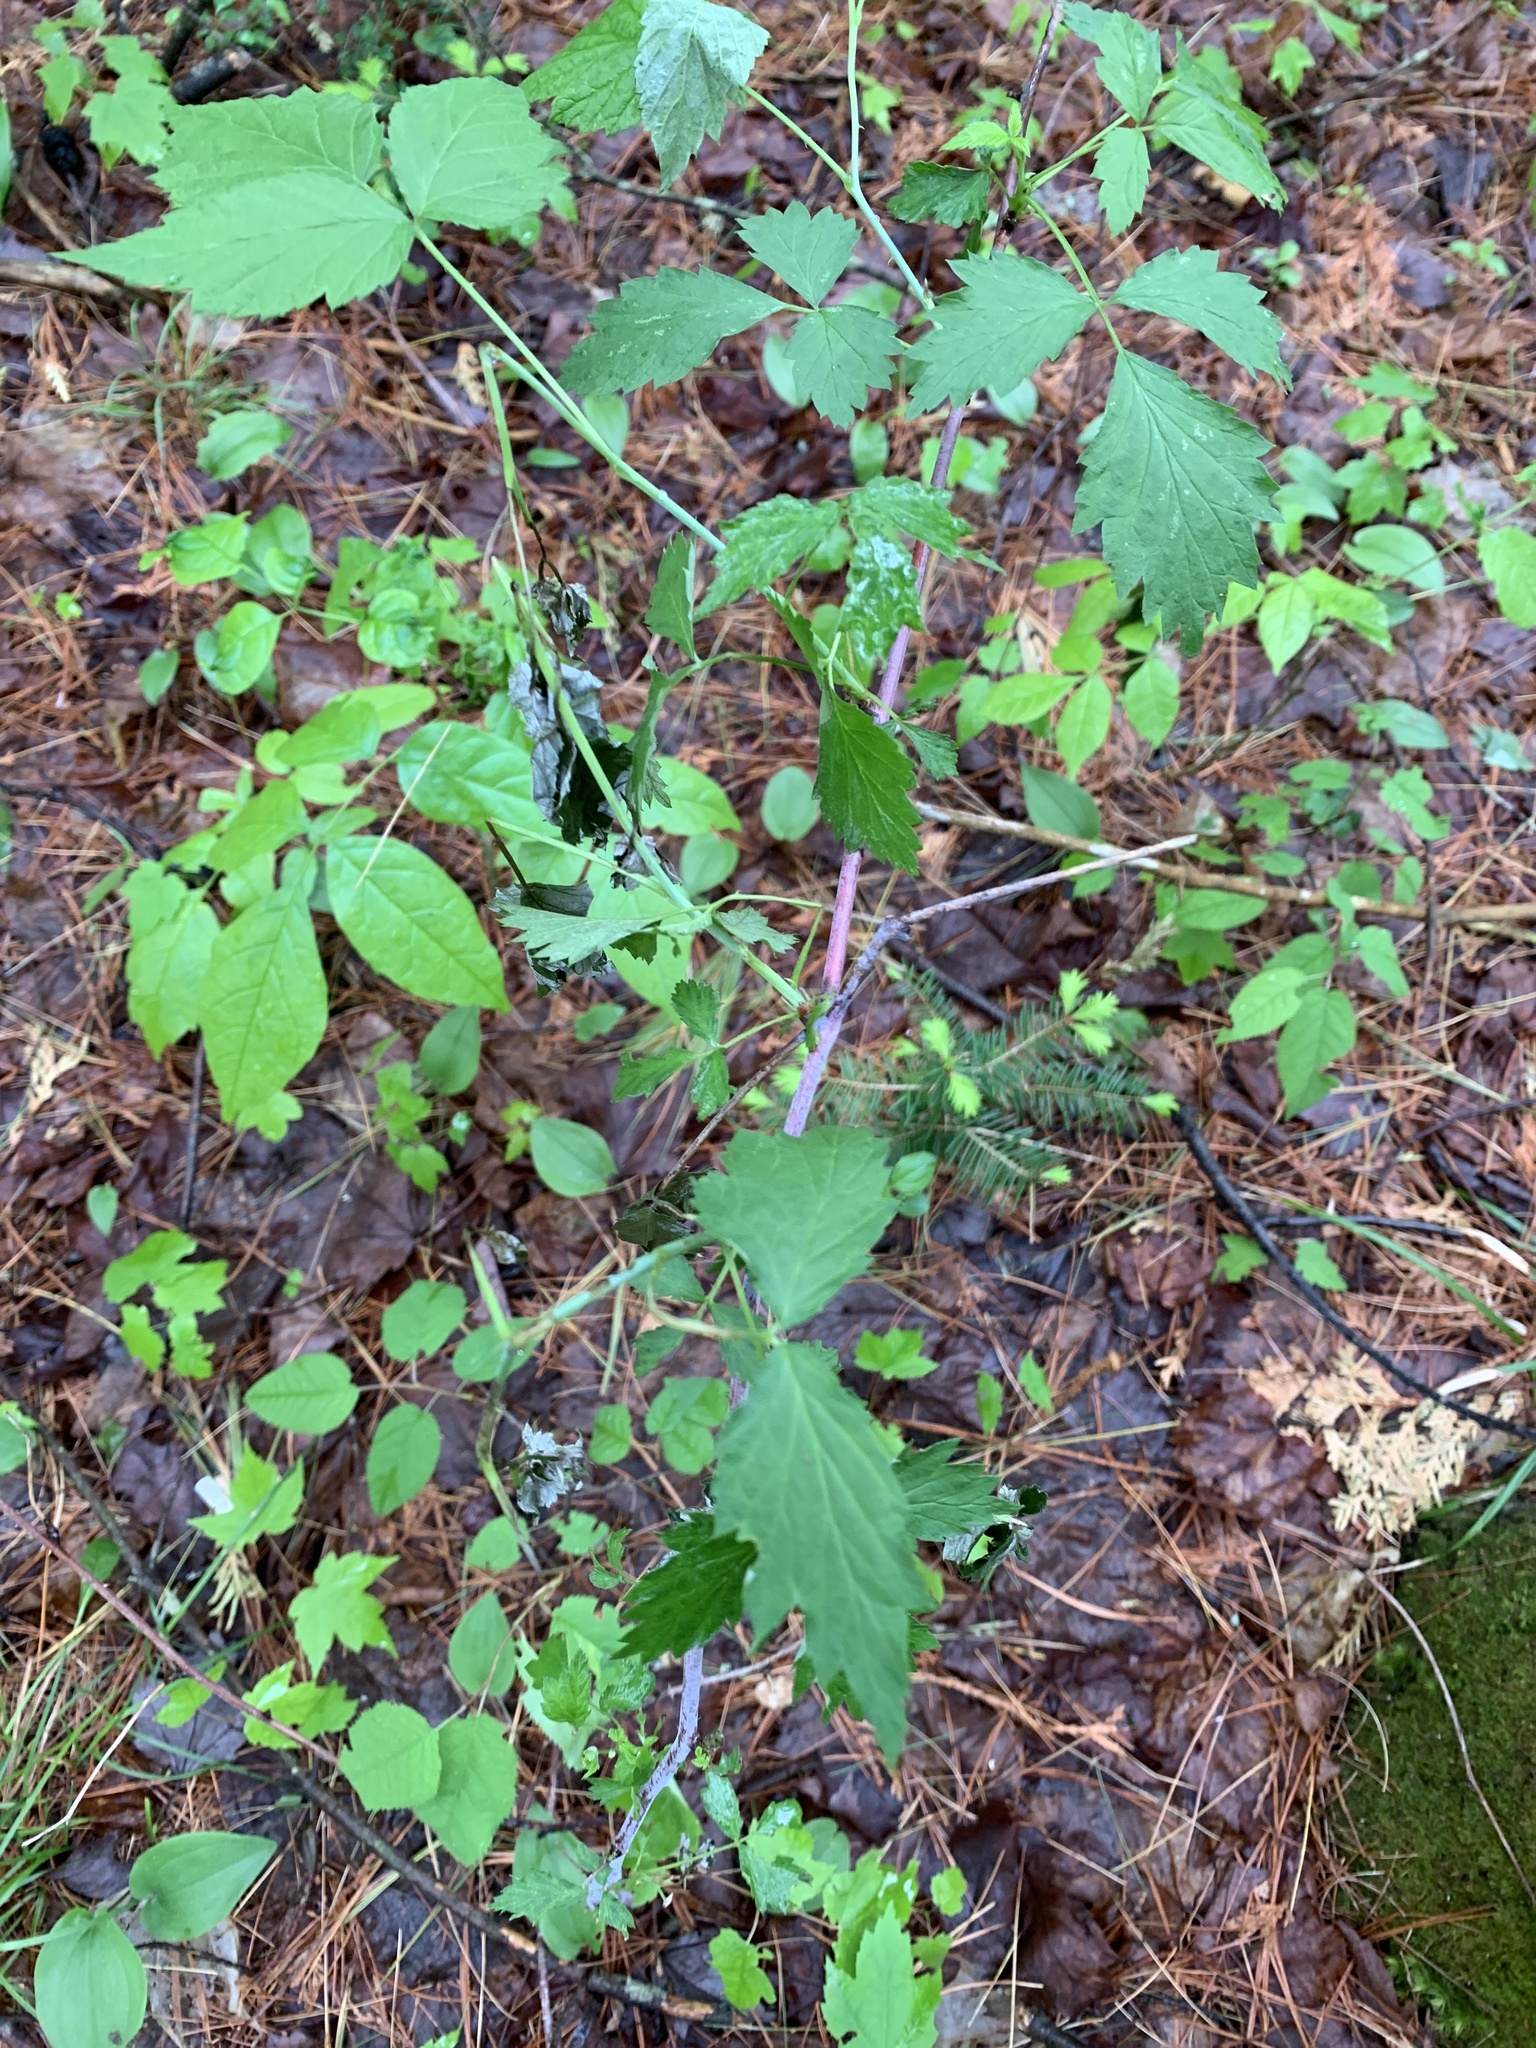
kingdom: Plantae
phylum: Tracheophyta
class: Magnoliopsida
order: Rosales
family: Rosaceae
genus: Rubus
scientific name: Rubus occidentalis
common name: Black raspberry
